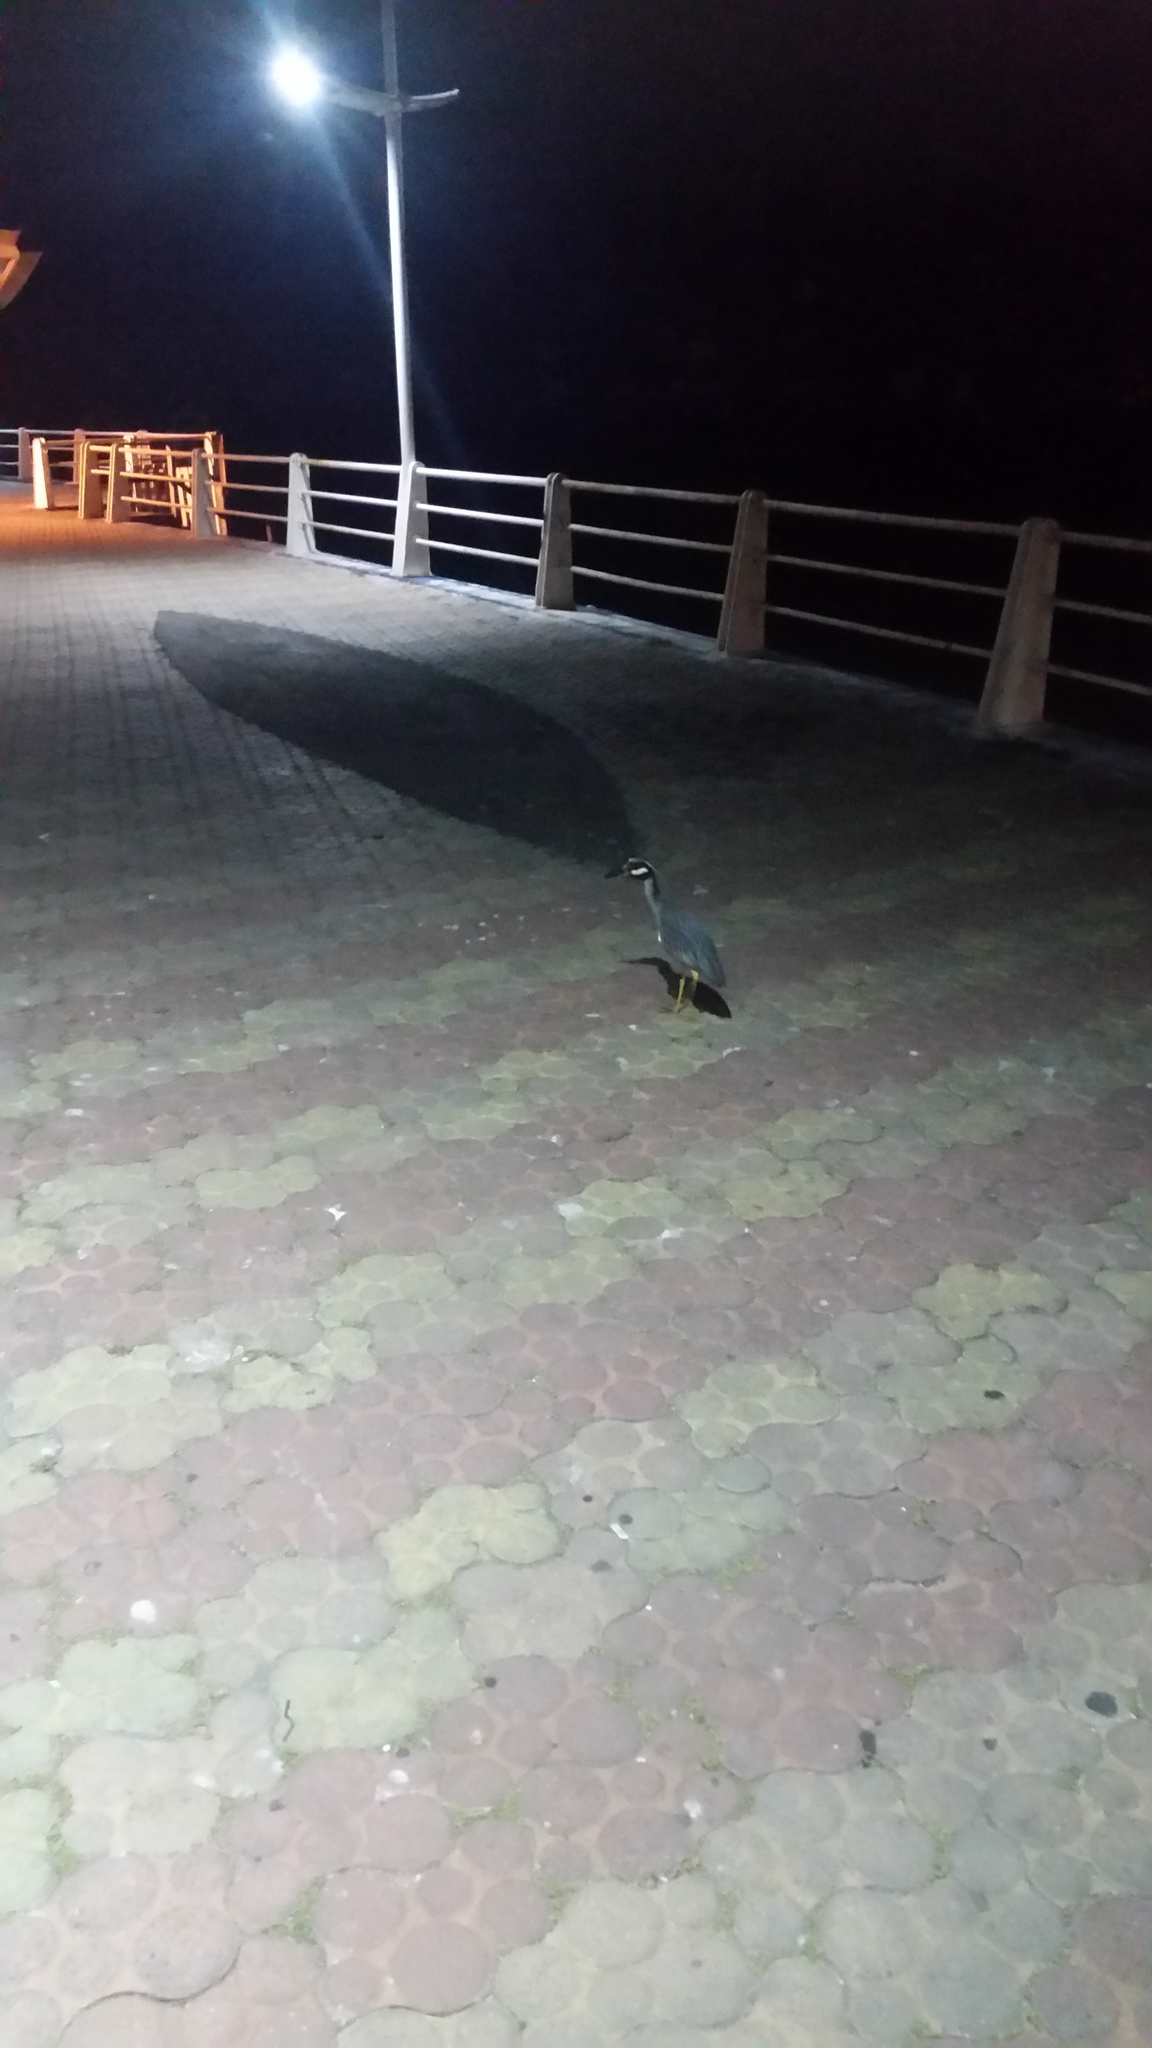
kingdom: Animalia
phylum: Chordata
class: Aves
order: Pelecaniformes
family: Ardeidae
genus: Nyctanassa
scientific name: Nyctanassa violacea
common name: Yellow-crowned night heron
